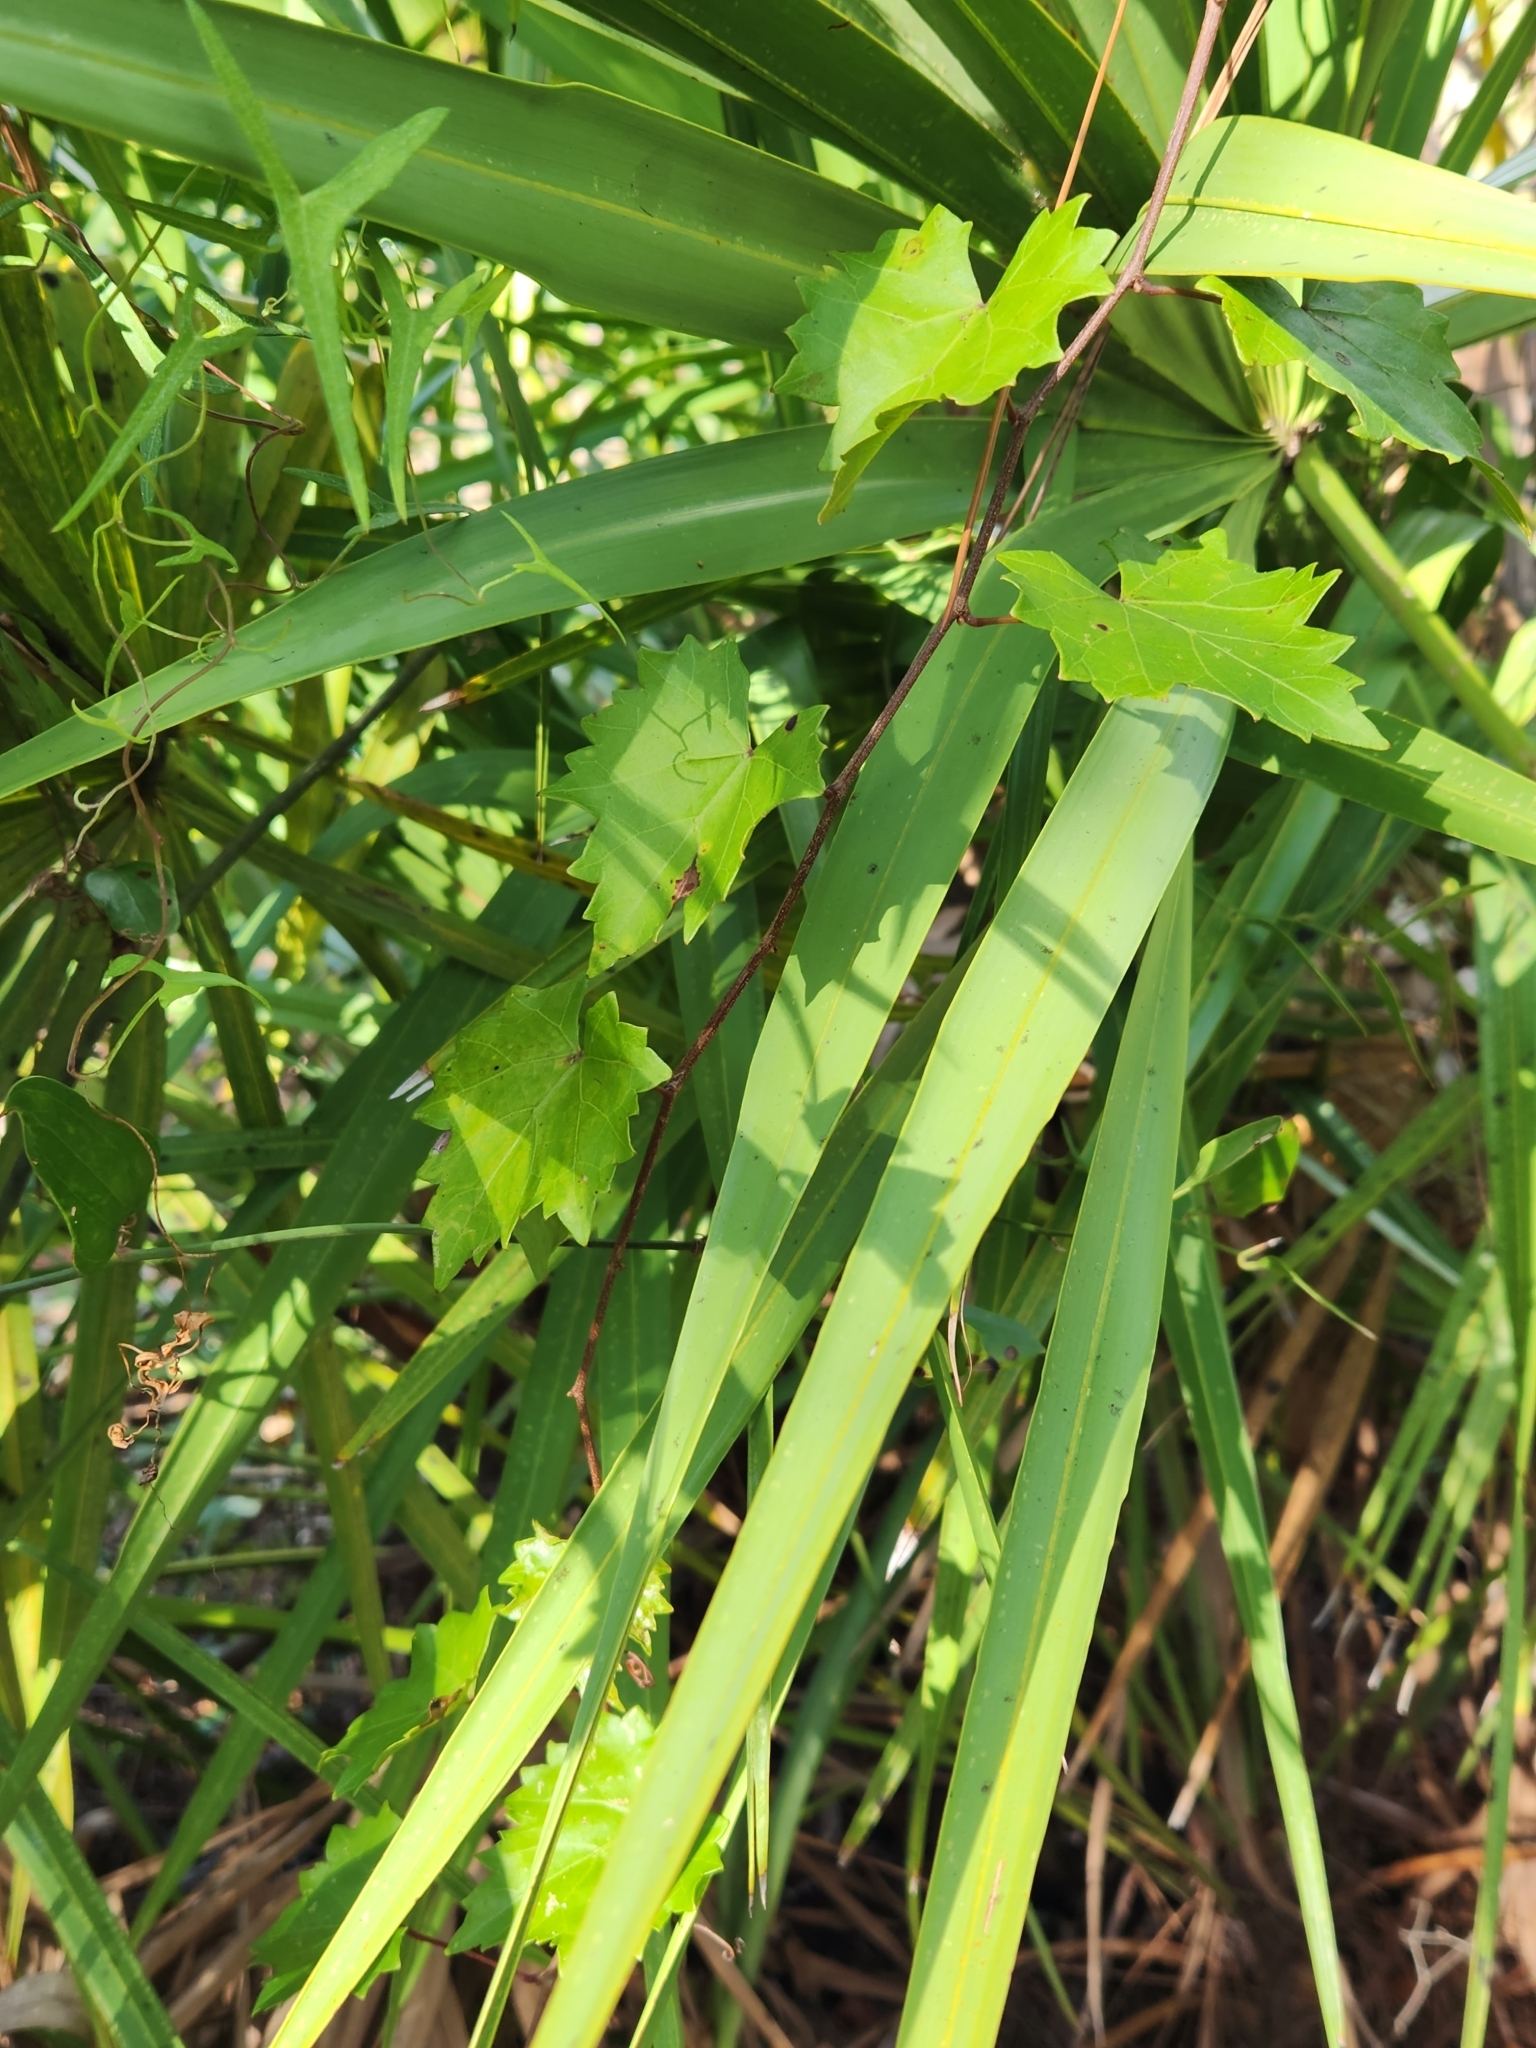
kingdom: Plantae
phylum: Tracheophyta
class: Magnoliopsida
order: Vitales
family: Vitaceae
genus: Vitis
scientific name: Vitis rotundifolia
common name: Muscadine grape
